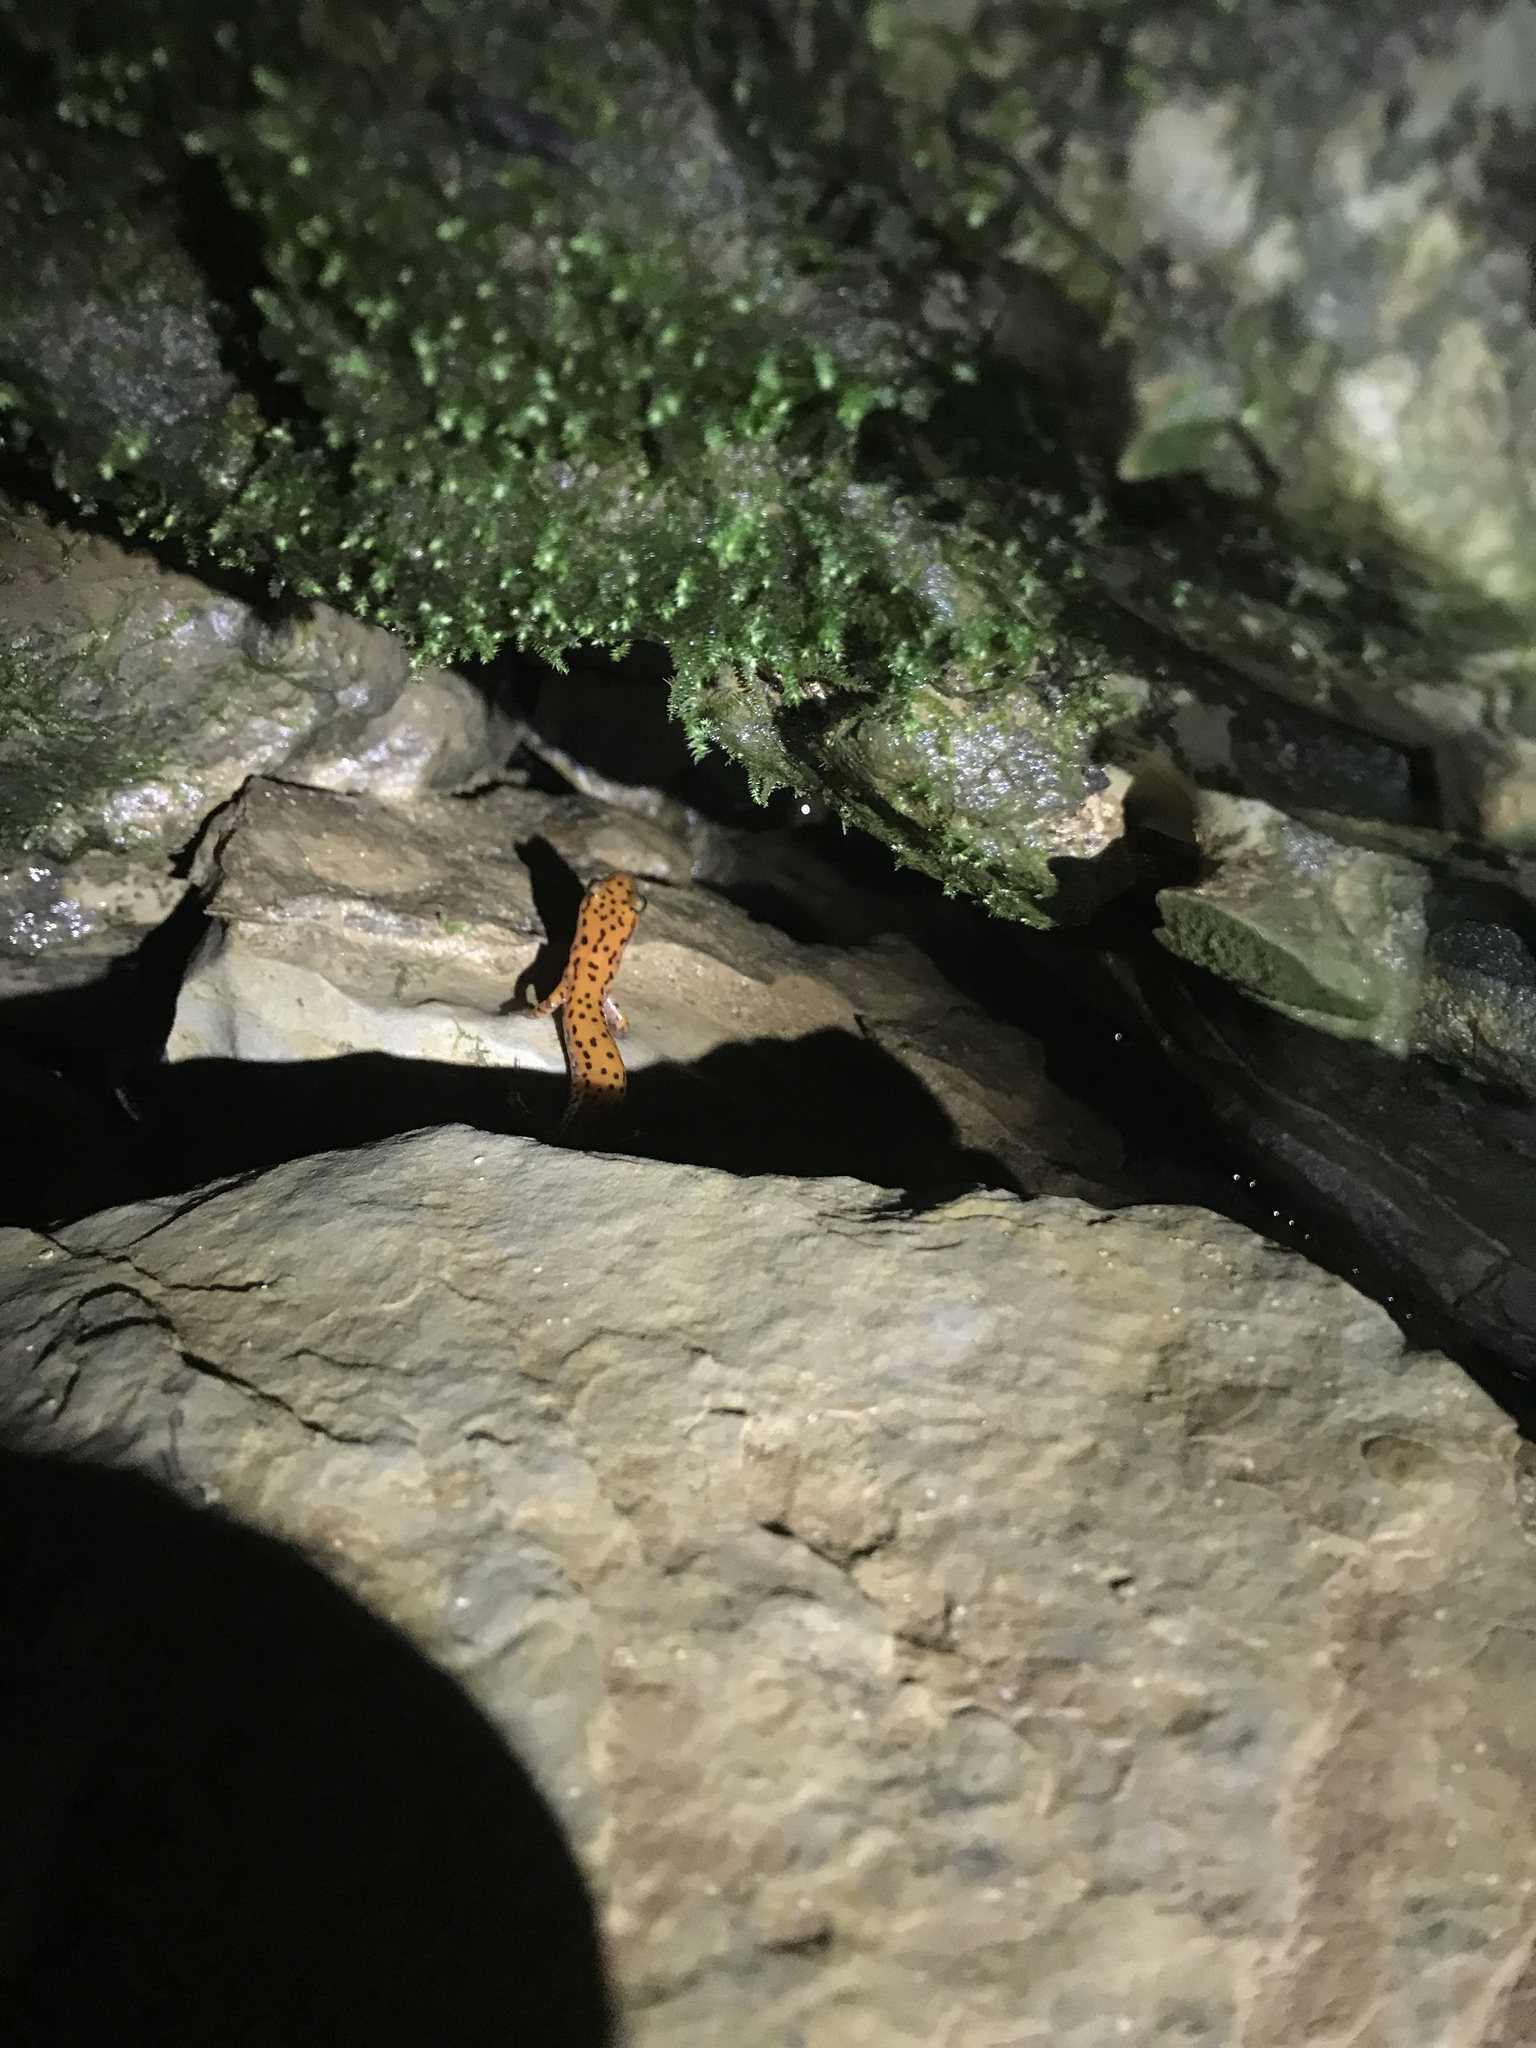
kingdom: Animalia
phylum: Chordata
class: Amphibia
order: Caudata
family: Plethodontidae
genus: Eurycea
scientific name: Eurycea lucifuga
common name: Cave salamander
